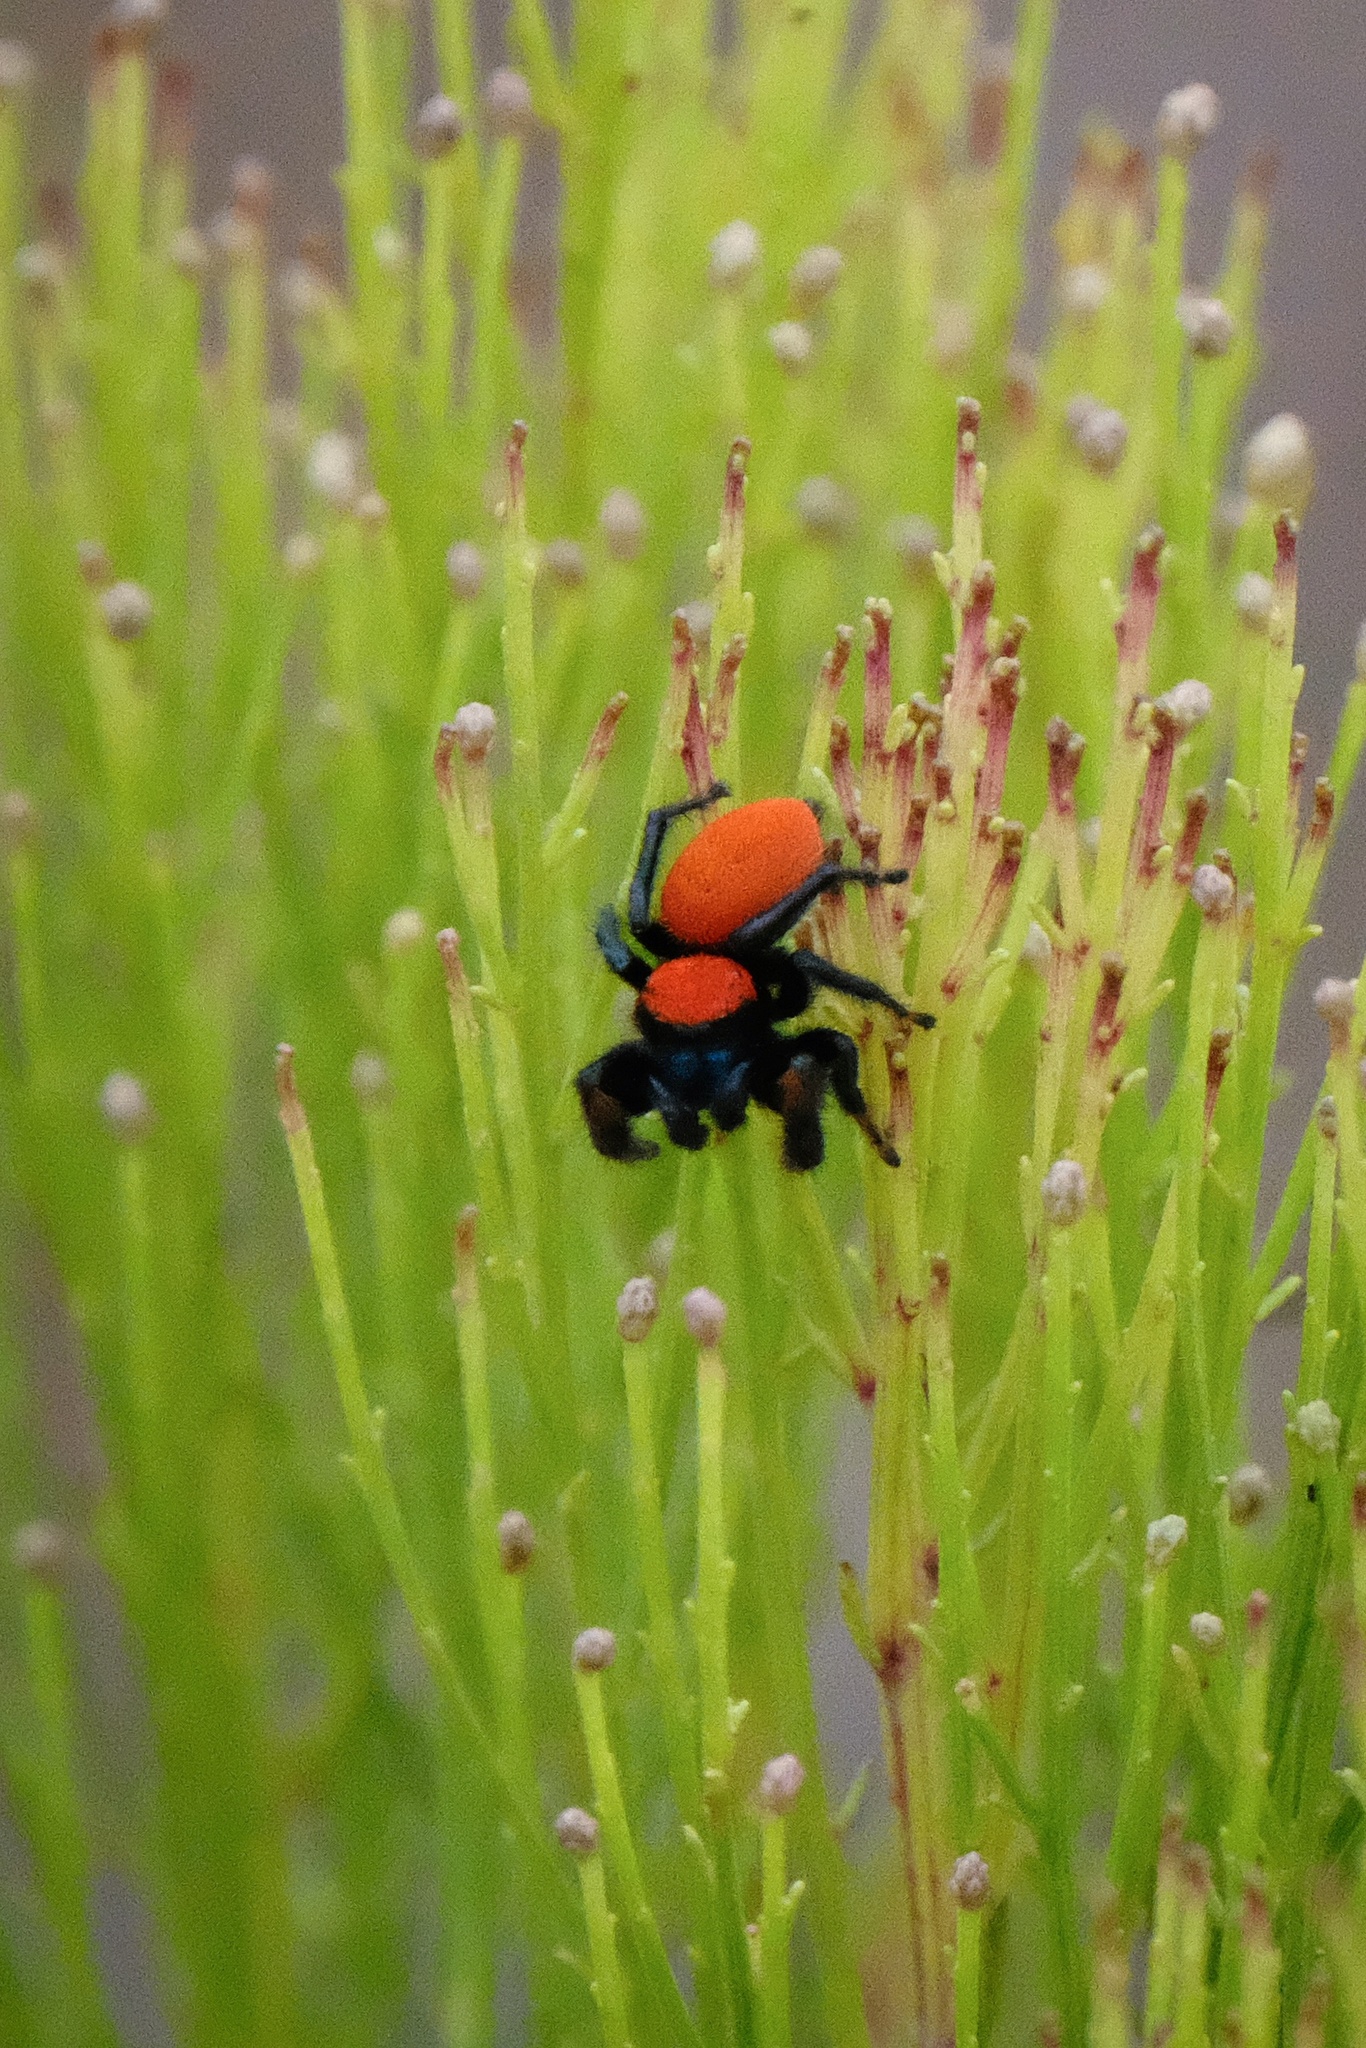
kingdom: Animalia
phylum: Arthropoda
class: Arachnida
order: Araneae
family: Salticidae
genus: Phidippus
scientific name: Phidippus nikites
